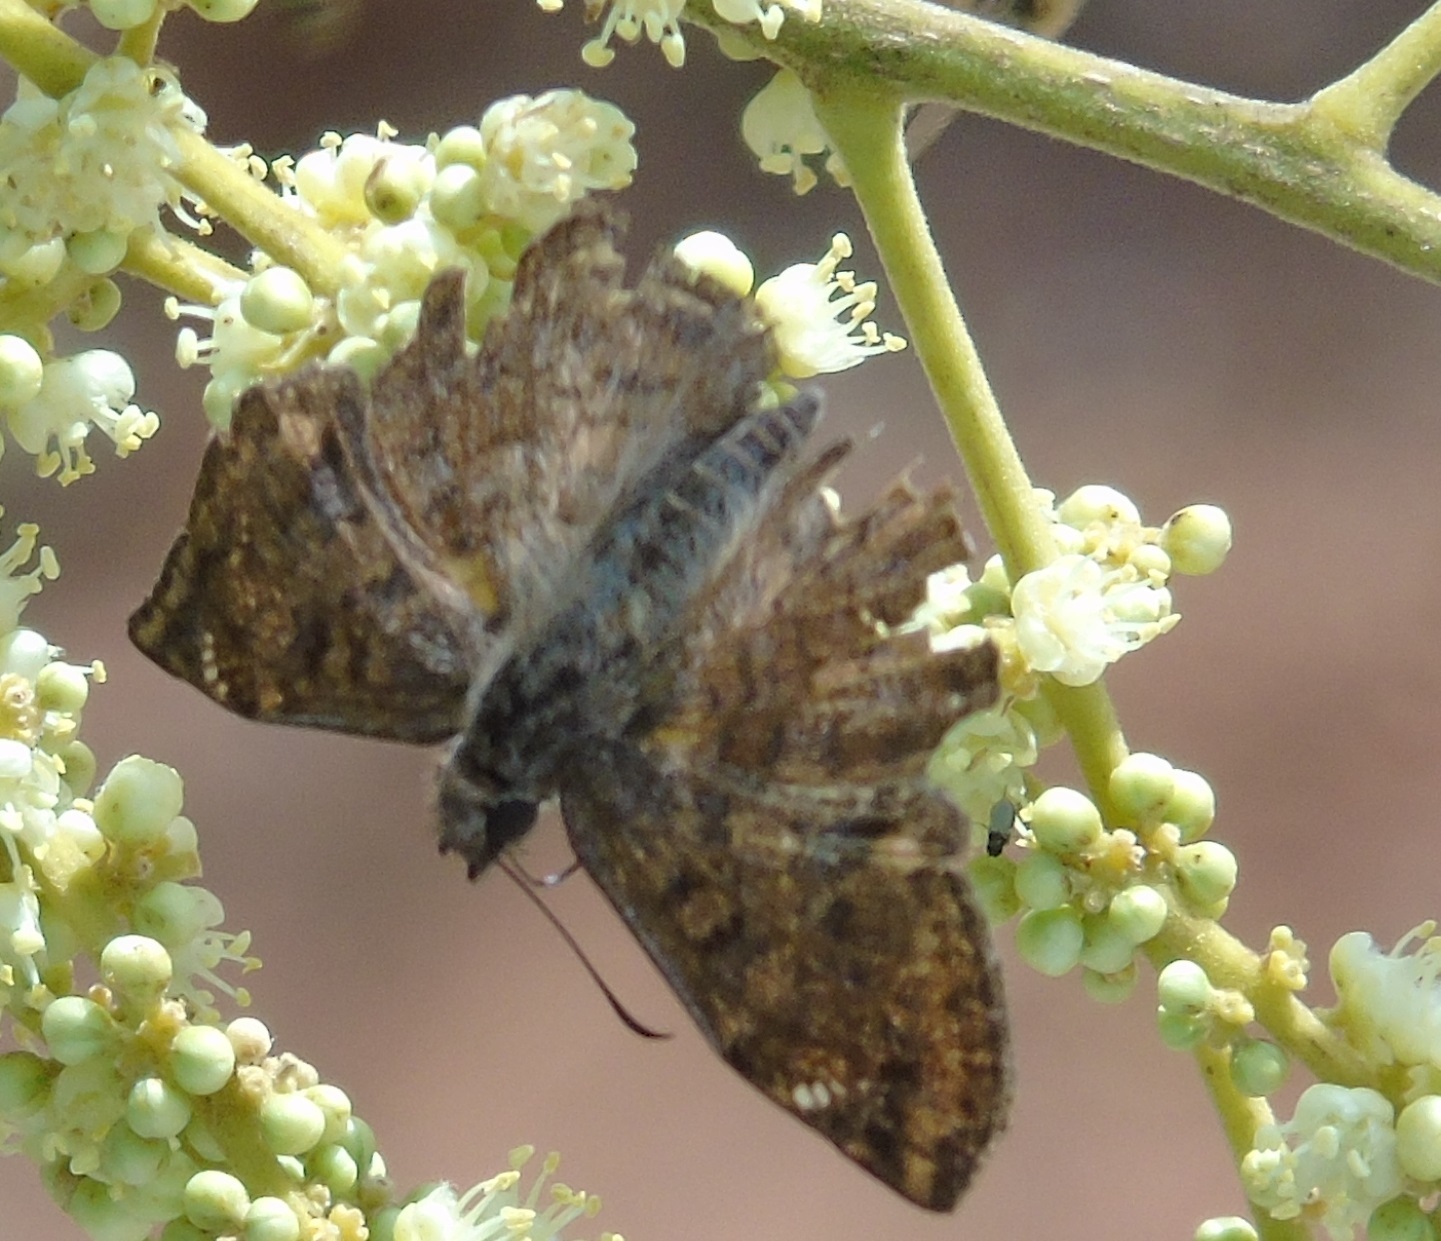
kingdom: Animalia
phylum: Arthropoda
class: Insecta
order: Lepidoptera
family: Hesperiidae
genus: Antigonus
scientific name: Antigonus erosus
